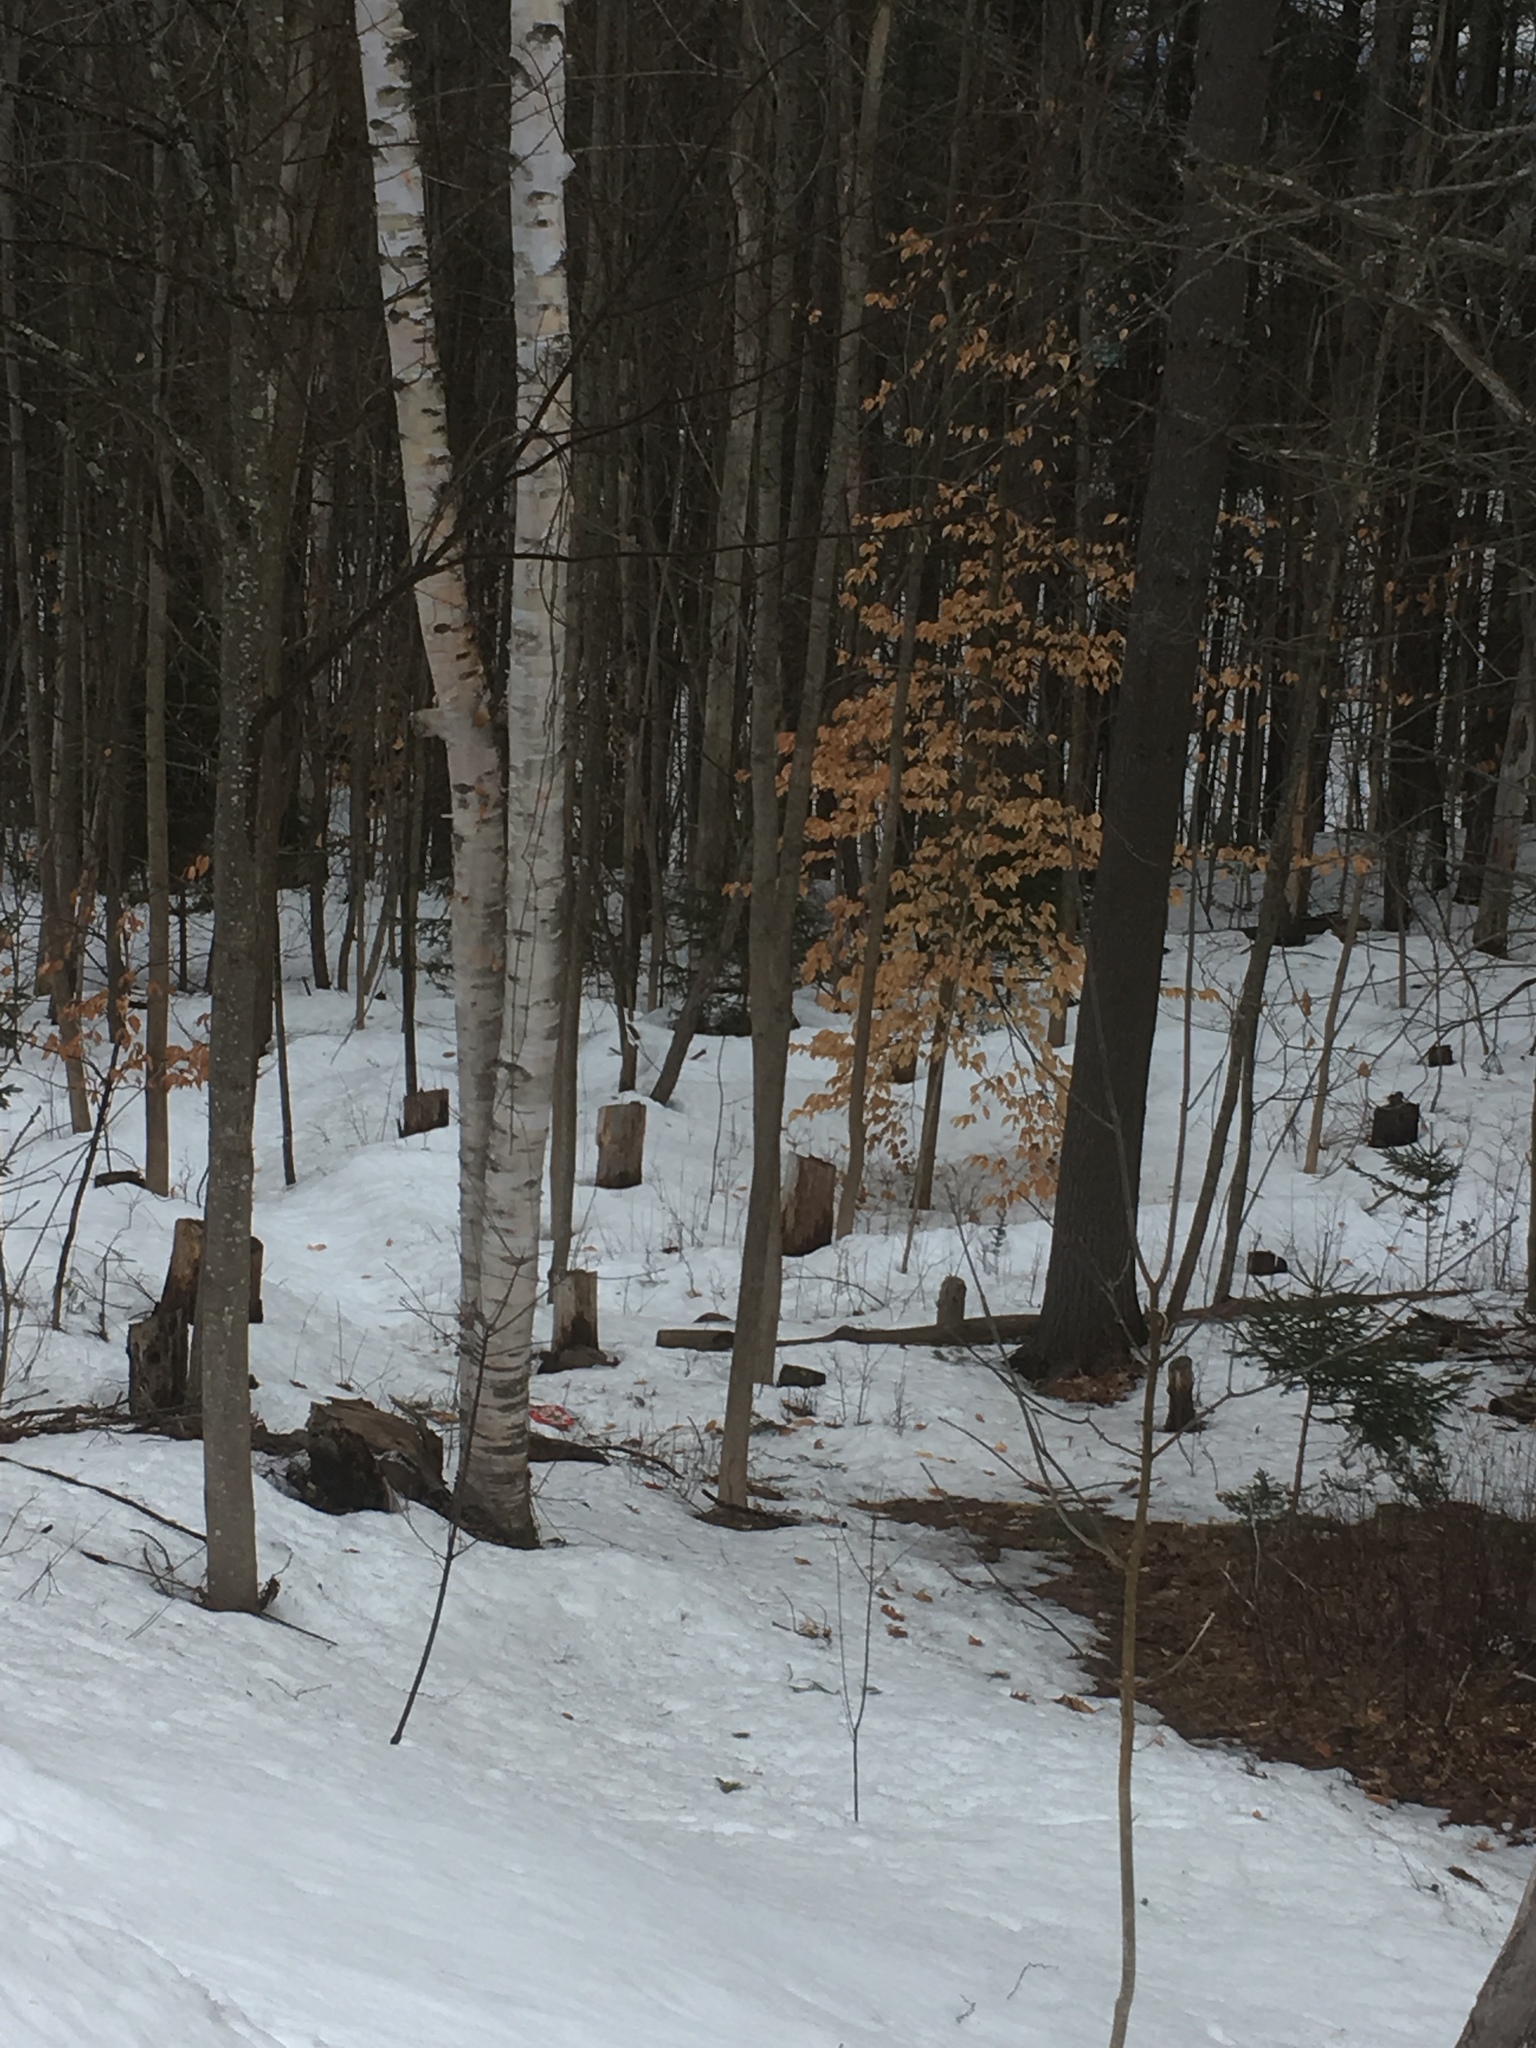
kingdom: Plantae
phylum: Tracheophyta
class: Magnoliopsida
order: Fagales
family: Betulaceae
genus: Betula
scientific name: Betula papyrifera
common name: Paper birch
